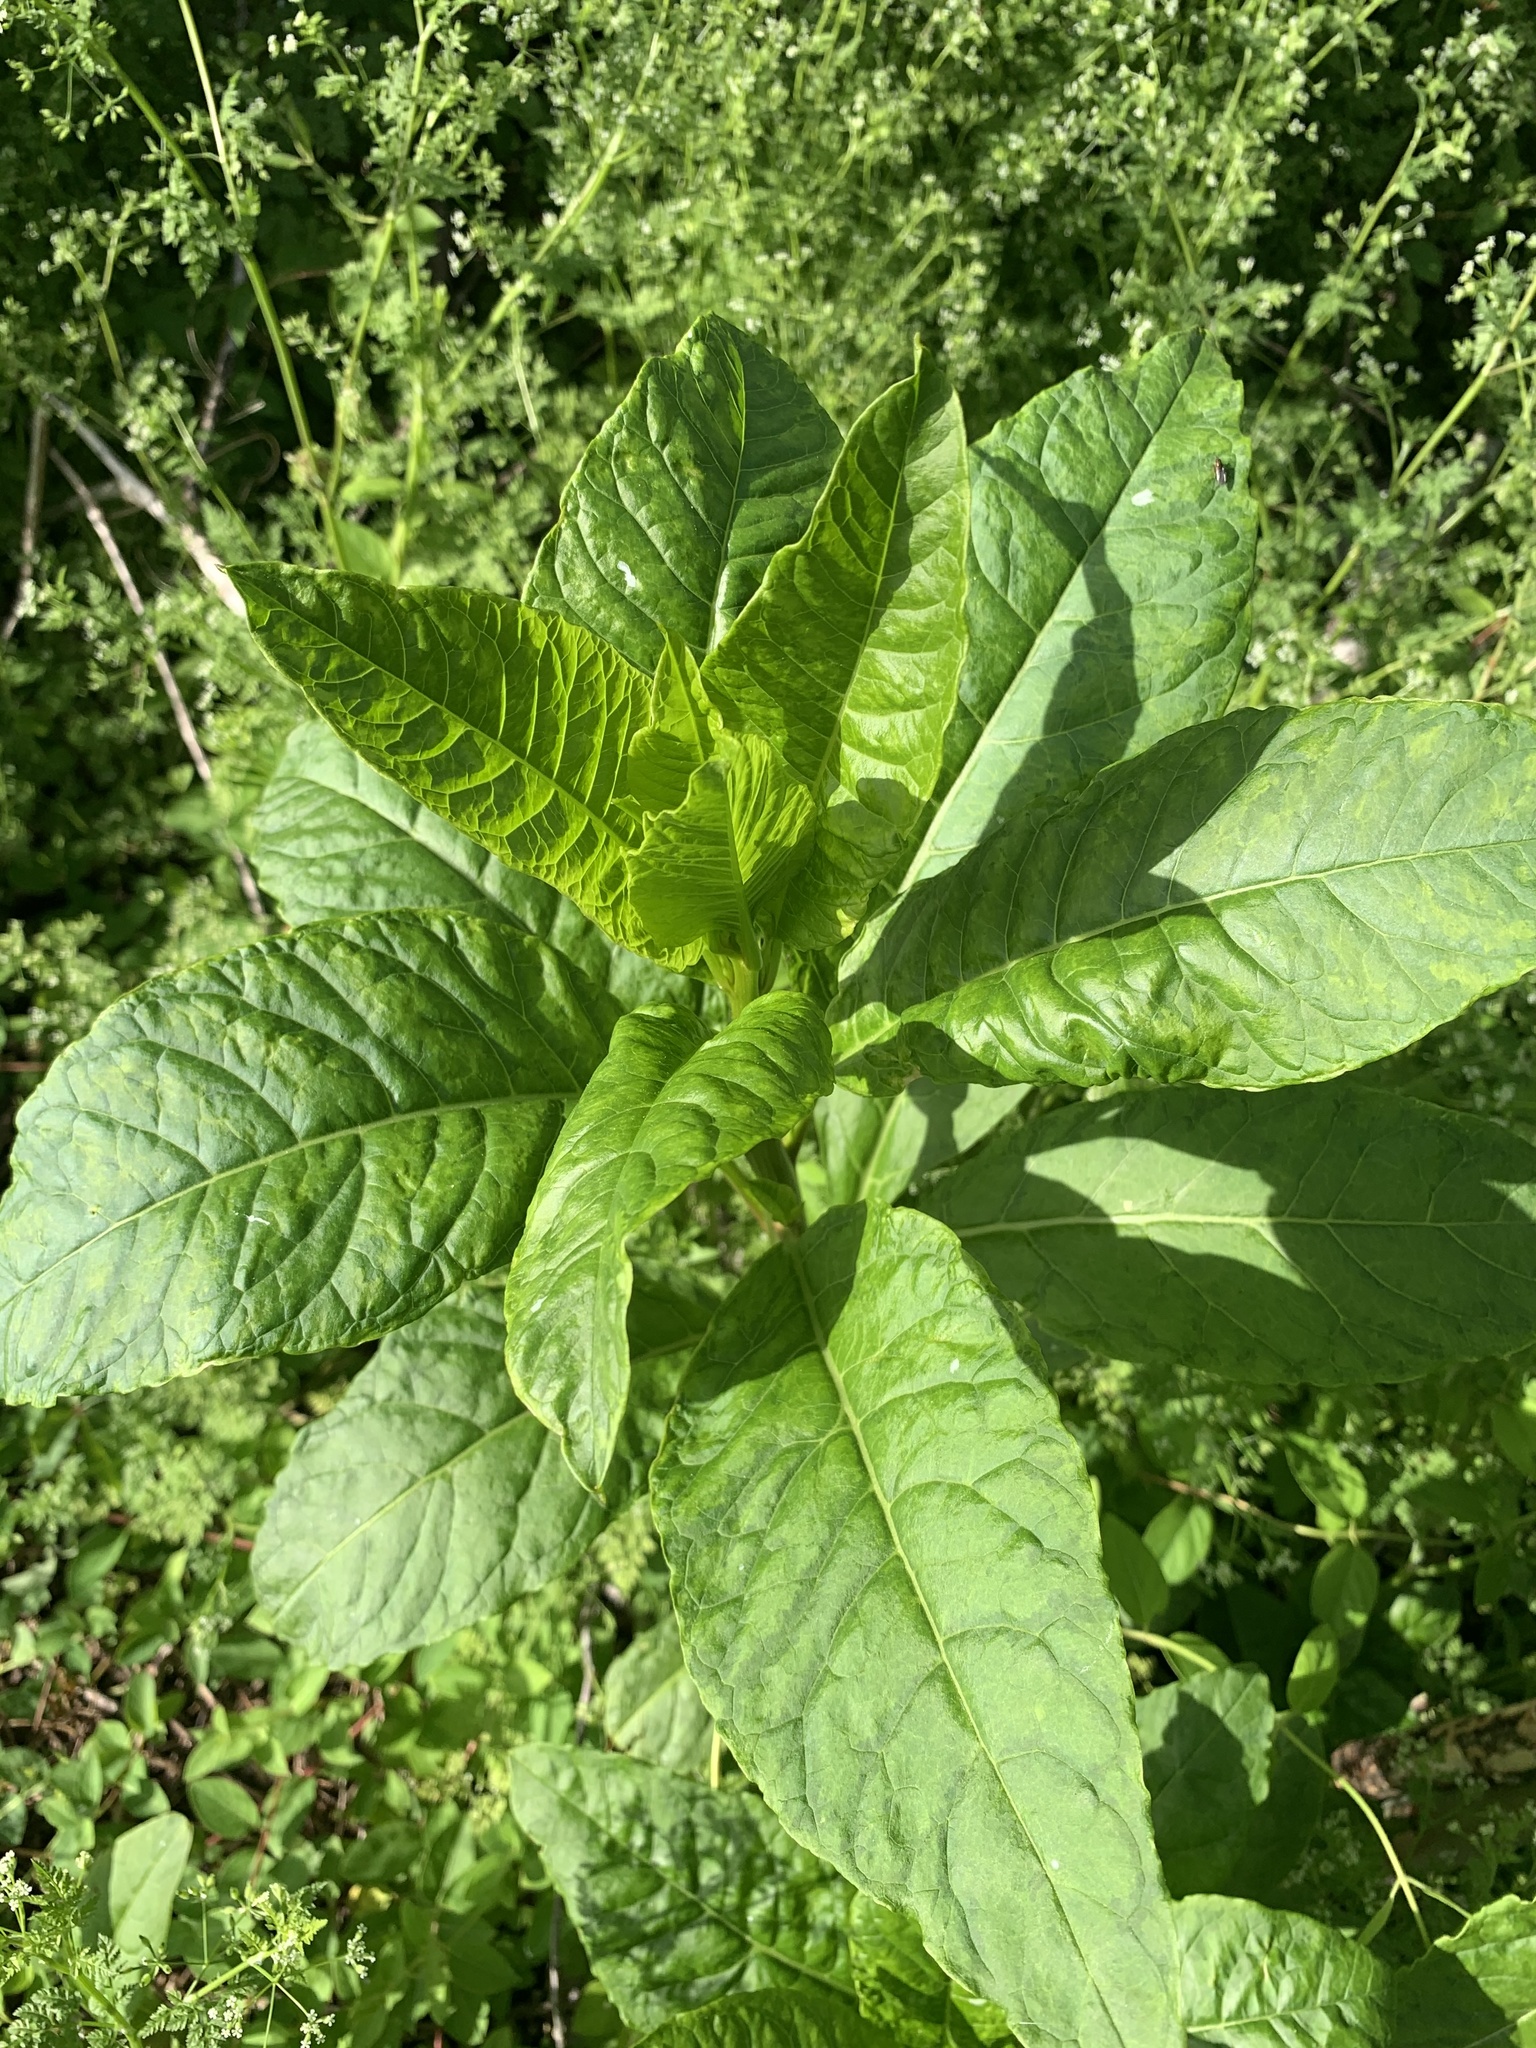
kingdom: Plantae
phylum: Tracheophyta
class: Magnoliopsida
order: Caryophyllales
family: Phytolaccaceae
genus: Phytolacca
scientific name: Phytolacca americana
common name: American pokeweed
